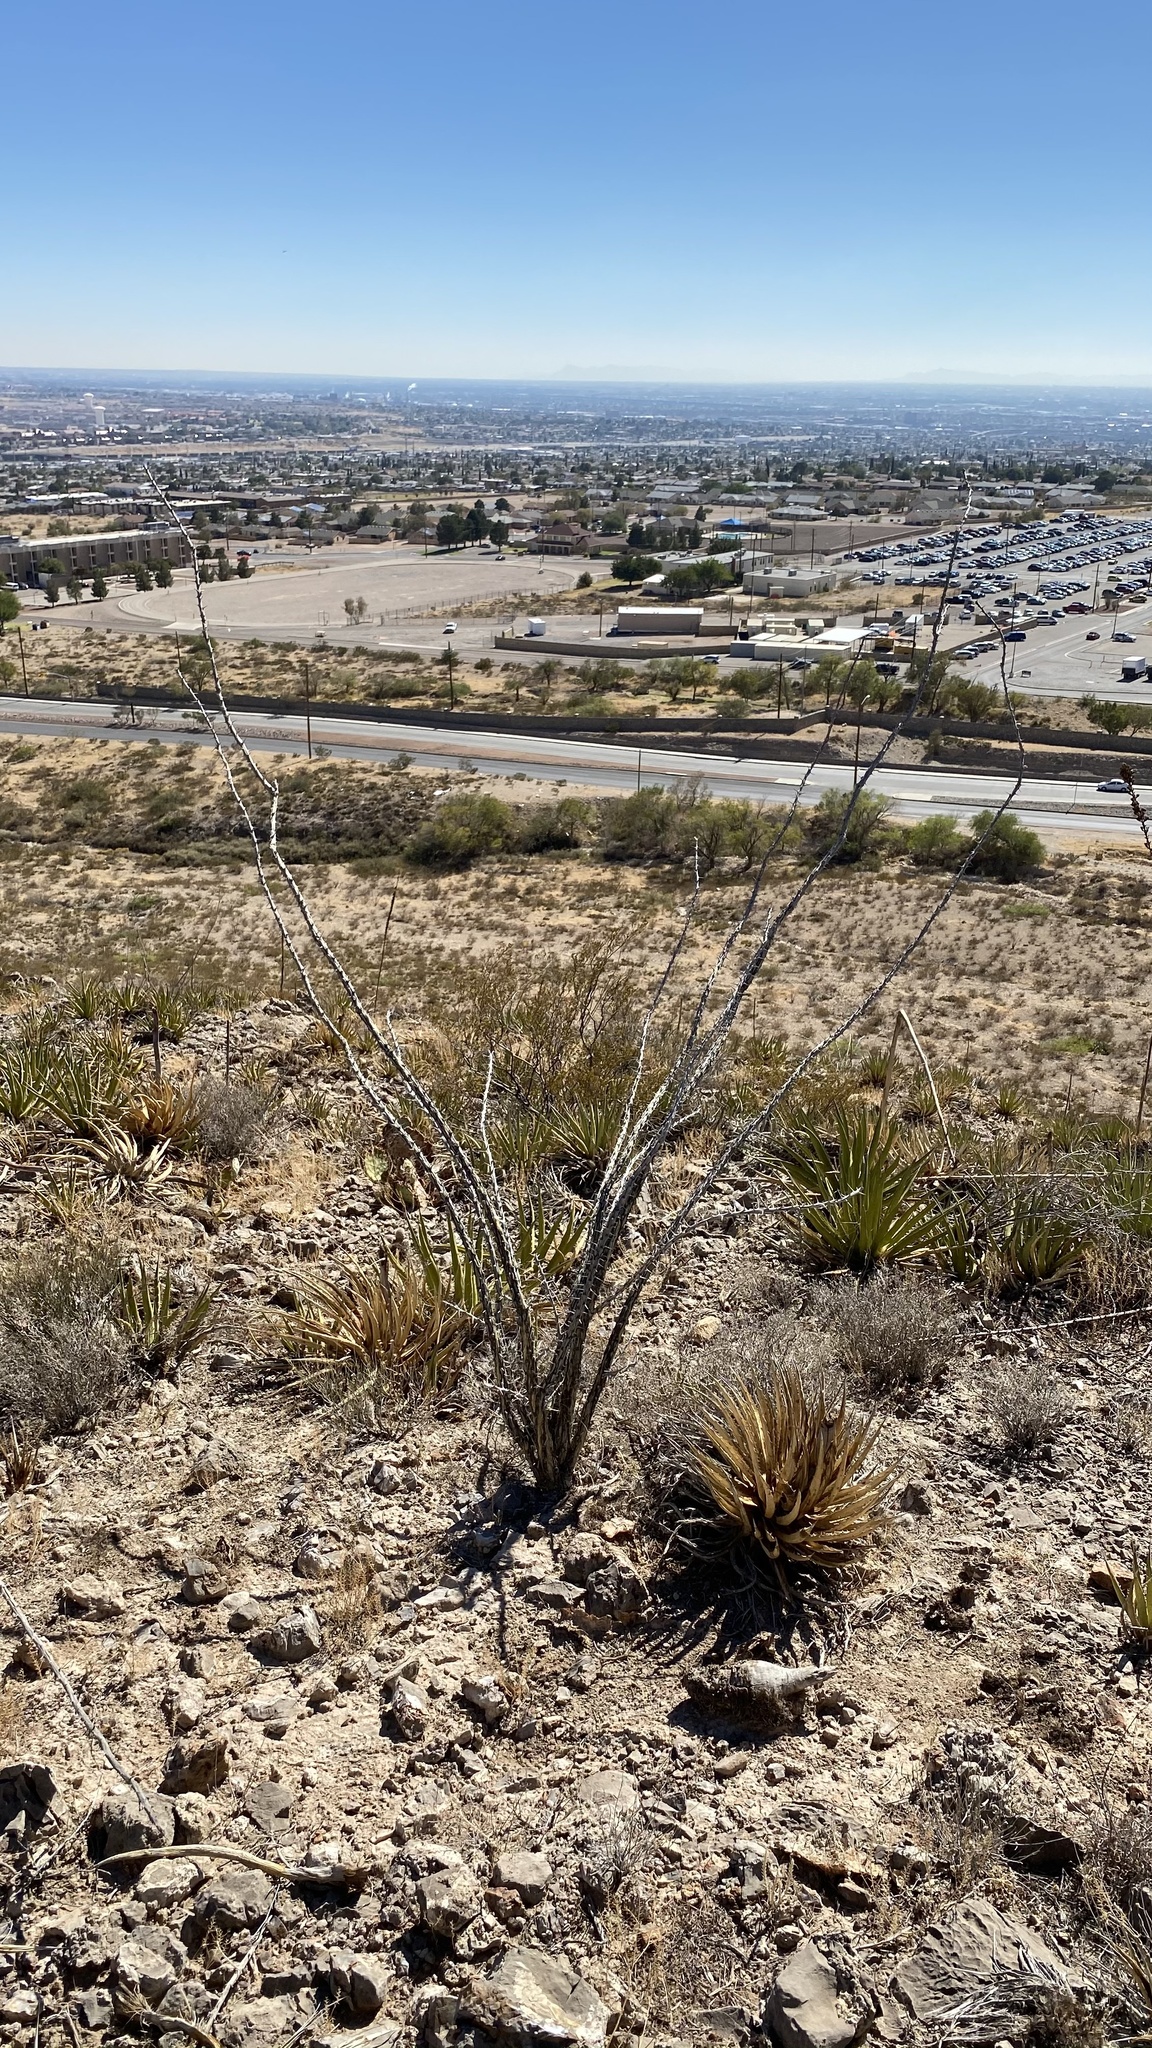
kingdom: Plantae
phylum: Tracheophyta
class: Magnoliopsida
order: Ericales
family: Fouquieriaceae
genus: Fouquieria
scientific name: Fouquieria splendens
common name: Vine-cactus
